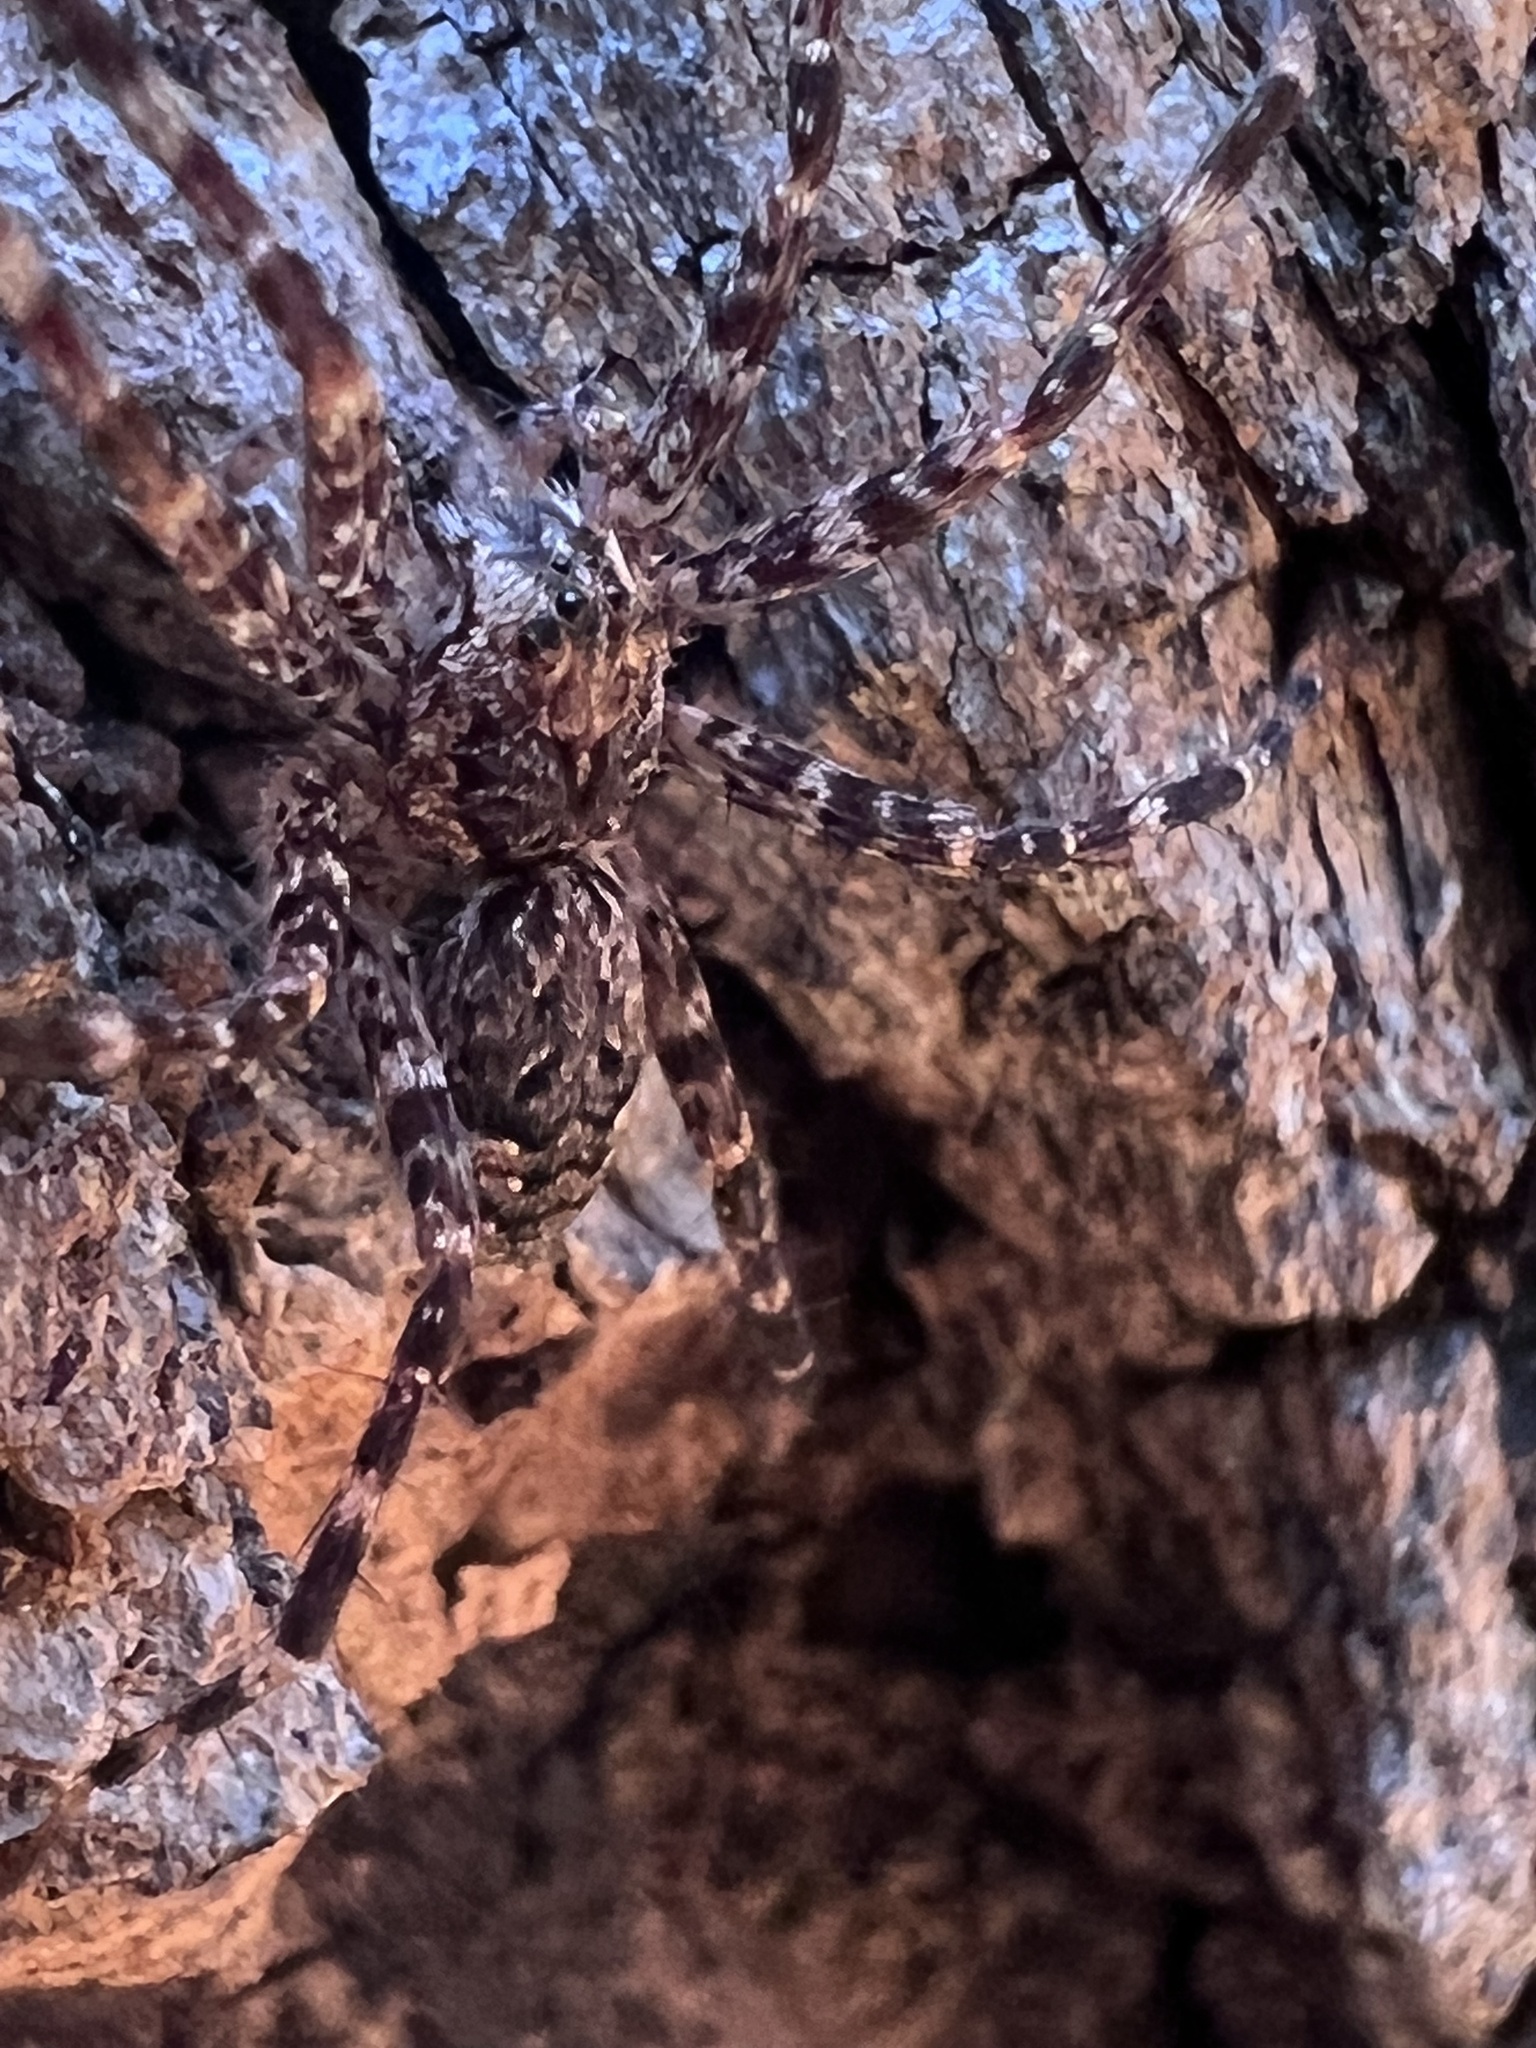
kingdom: Animalia
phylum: Arthropoda
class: Arachnida
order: Araneae
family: Pisauridae
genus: Dolomedes
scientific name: Dolomedes tenebrosus
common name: Dark fishing spider
